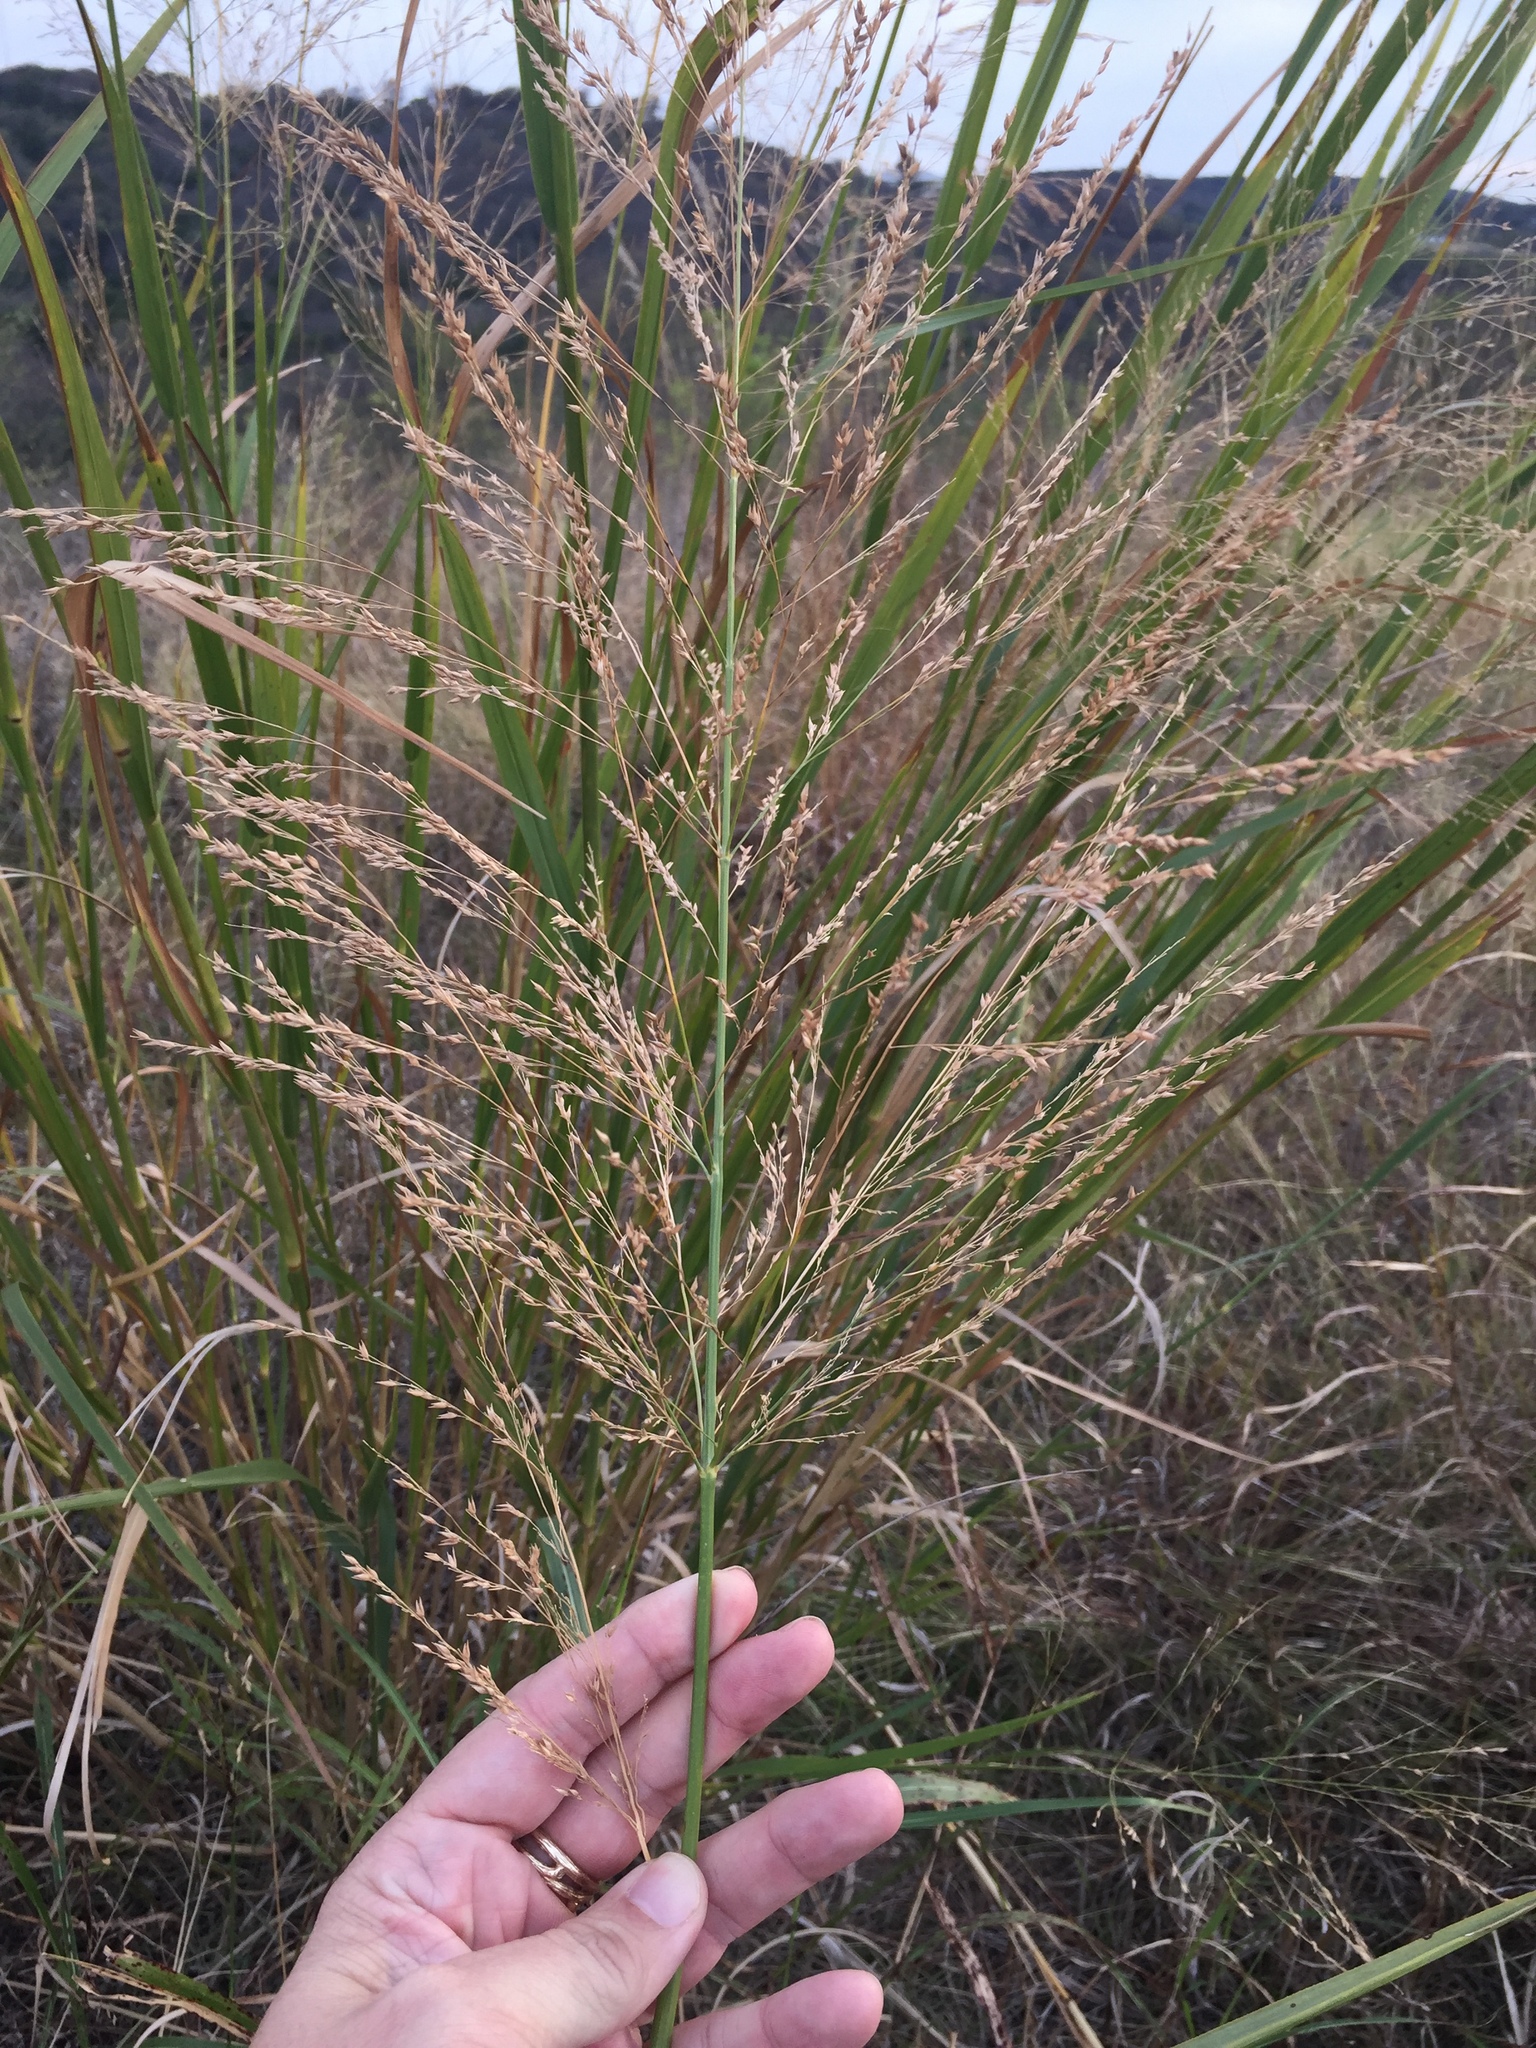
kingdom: Plantae
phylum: Tracheophyta
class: Liliopsida
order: Poales
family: Poaceae
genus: Panicum
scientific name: Panicum virgatum
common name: Switchgrass
